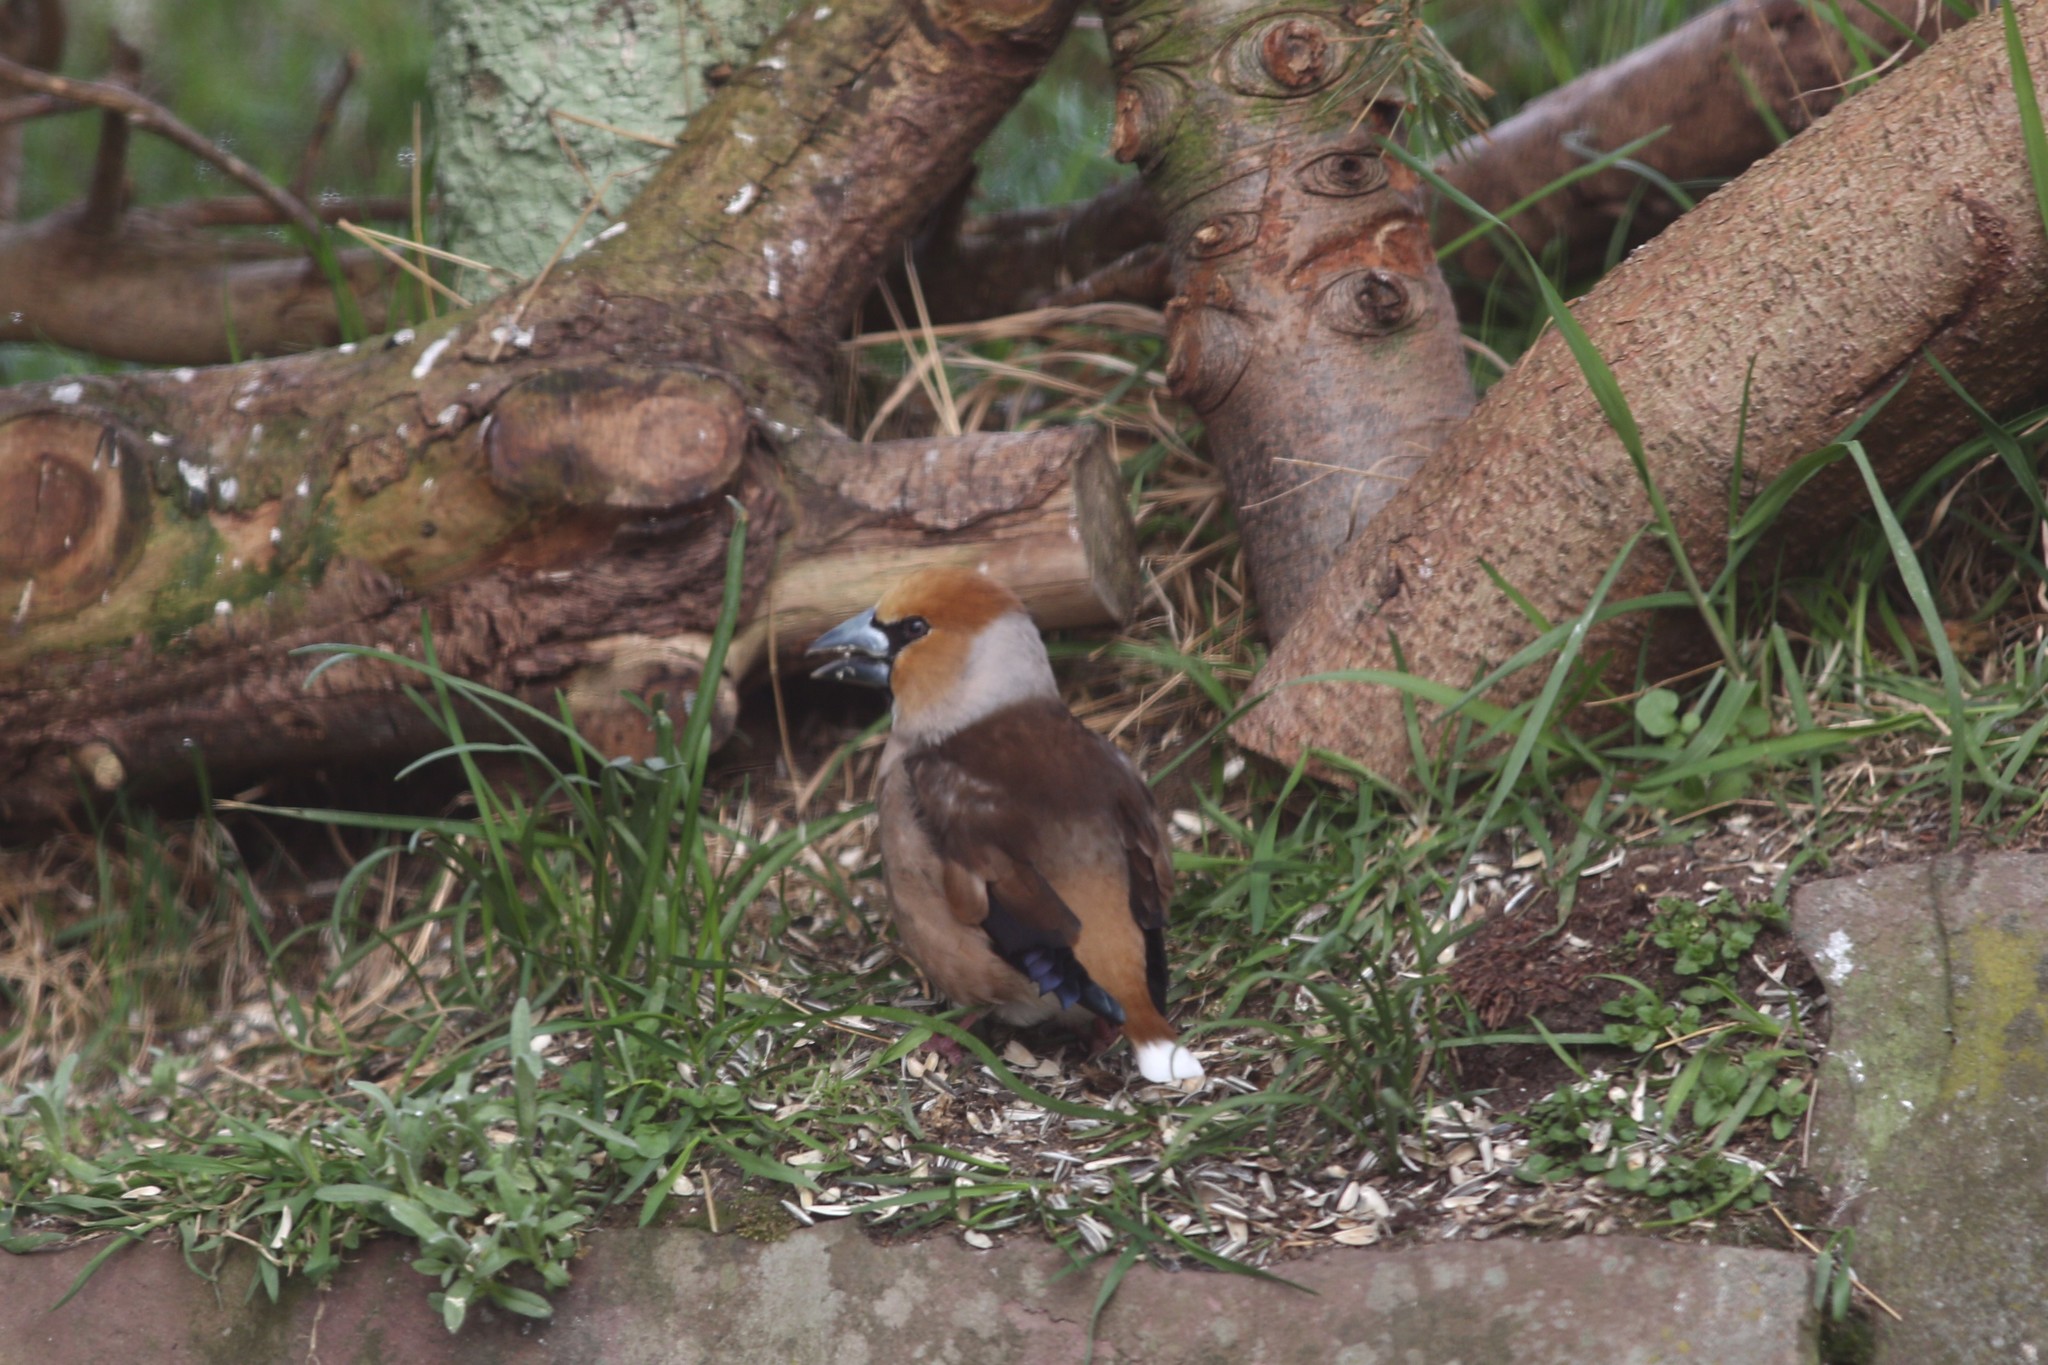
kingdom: Animalia
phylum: Chordata
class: Aves
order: Passeriformes
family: Fringillidae
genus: Coccothraustes
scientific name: Coccothraustes coccothraustes
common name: Hawfinch
